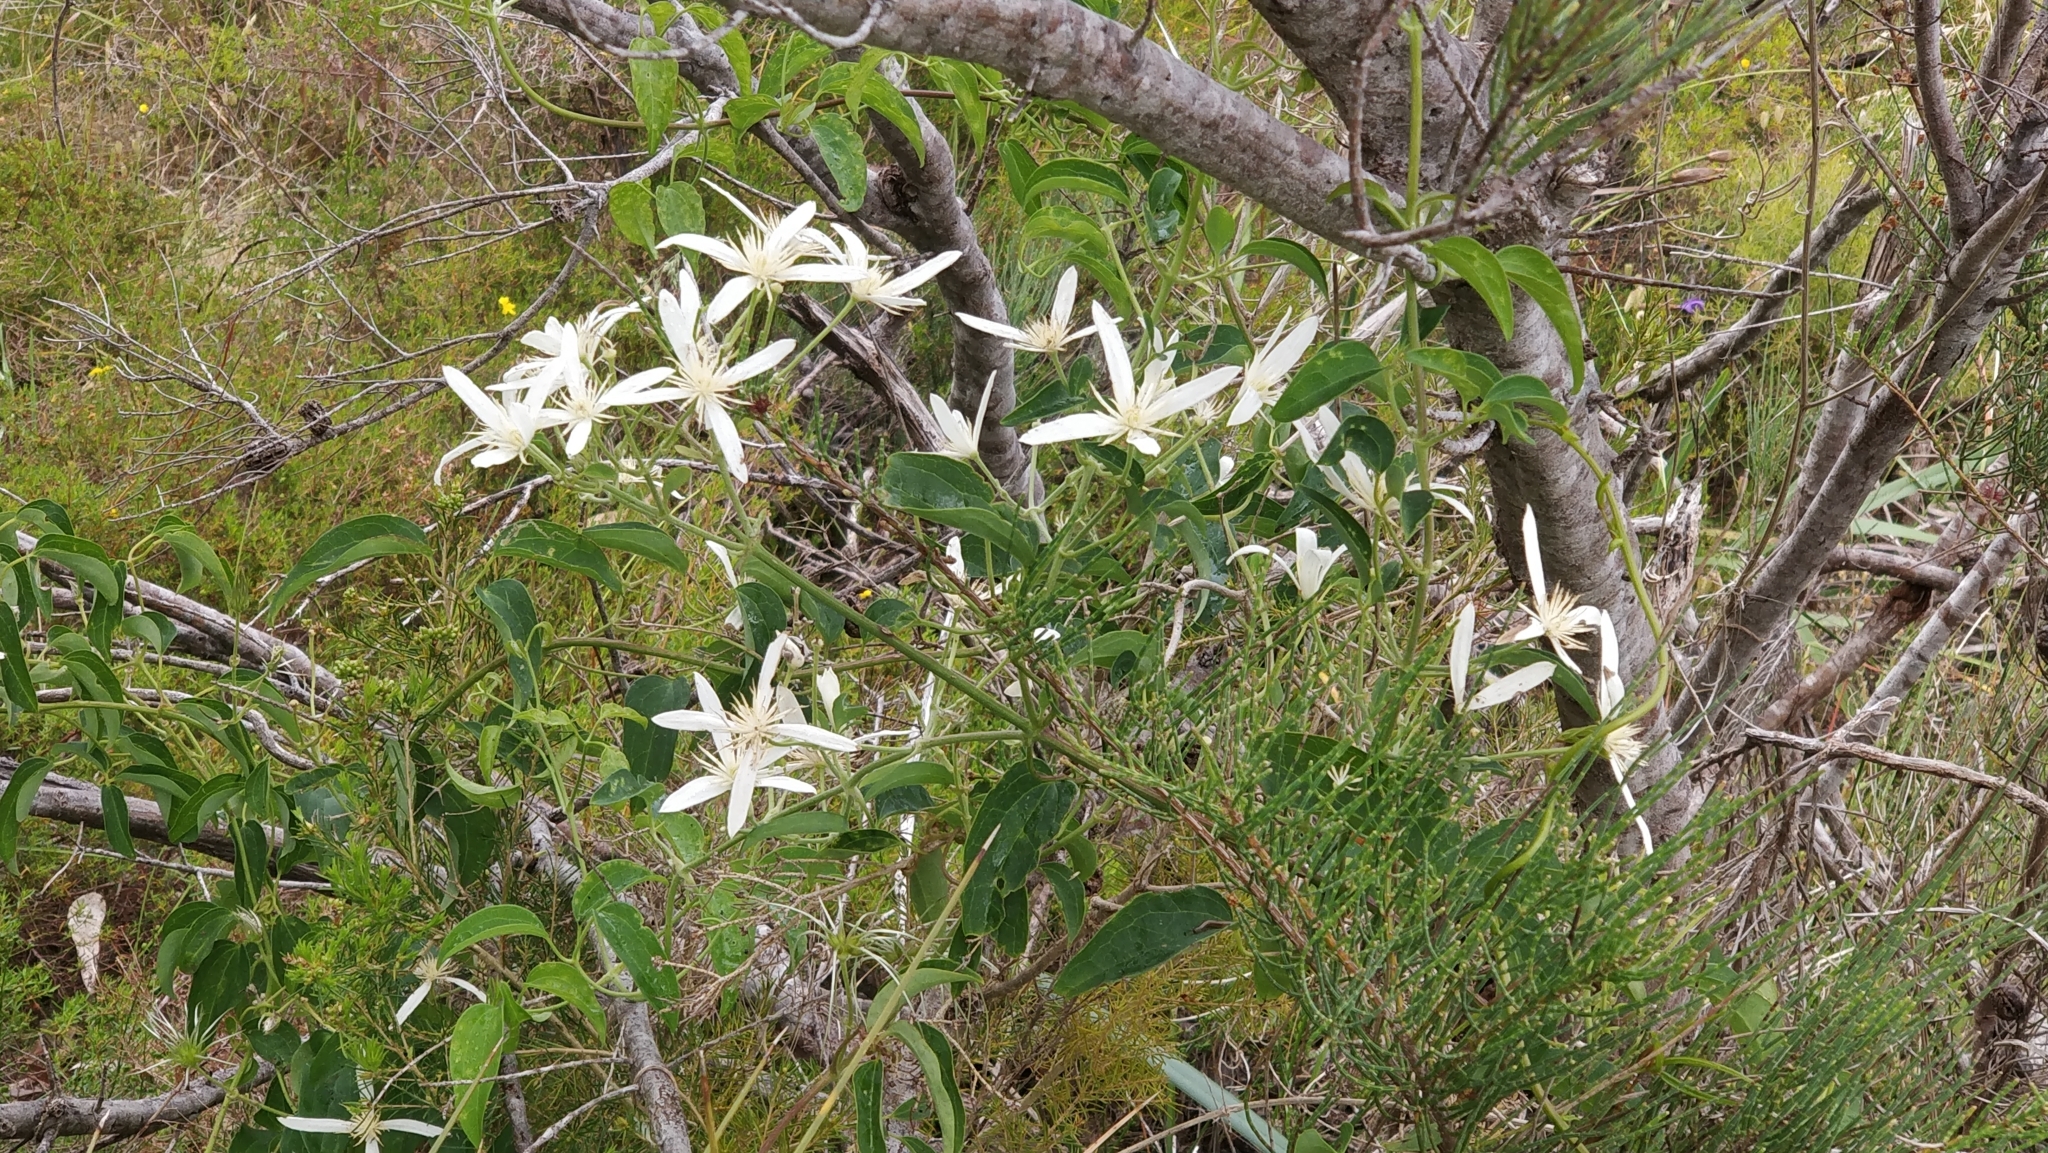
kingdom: Plantae
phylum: Tracheophyta
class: Magnoliopsida
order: Ranunculales
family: Ranunculaceae
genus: Clematis
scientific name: Clematis pubescens
